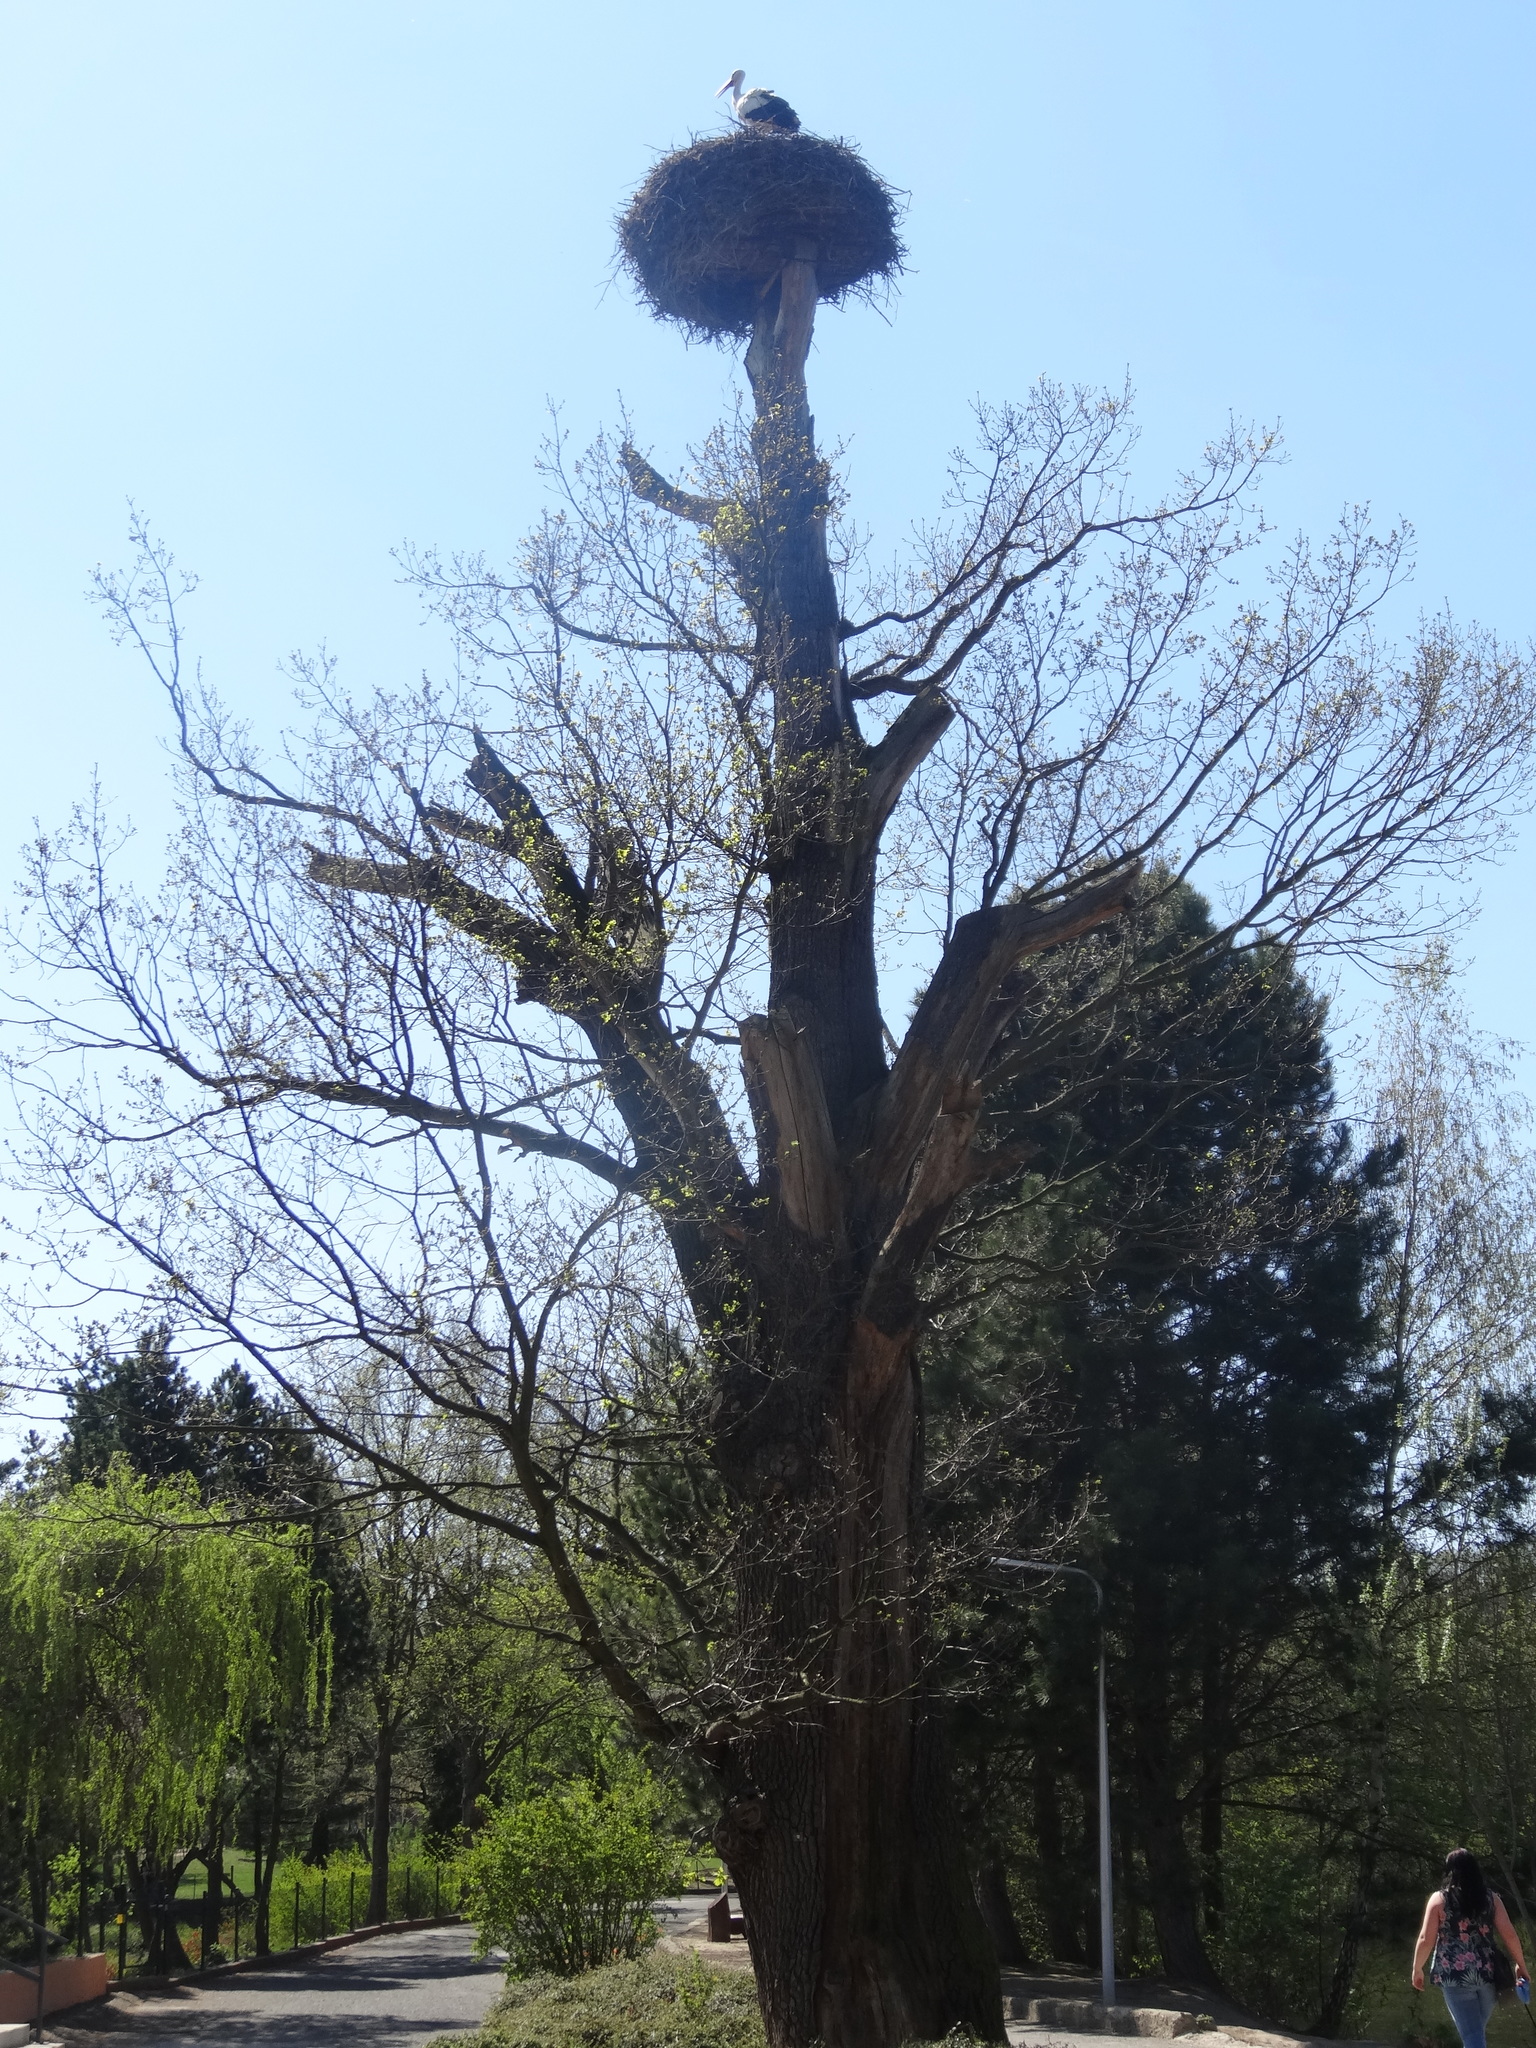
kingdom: Animalia
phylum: Chordata
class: Aves
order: Ciconiiformes
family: Ciconiidae
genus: Ciconia
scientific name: Ciconia ciconia
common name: White stork
